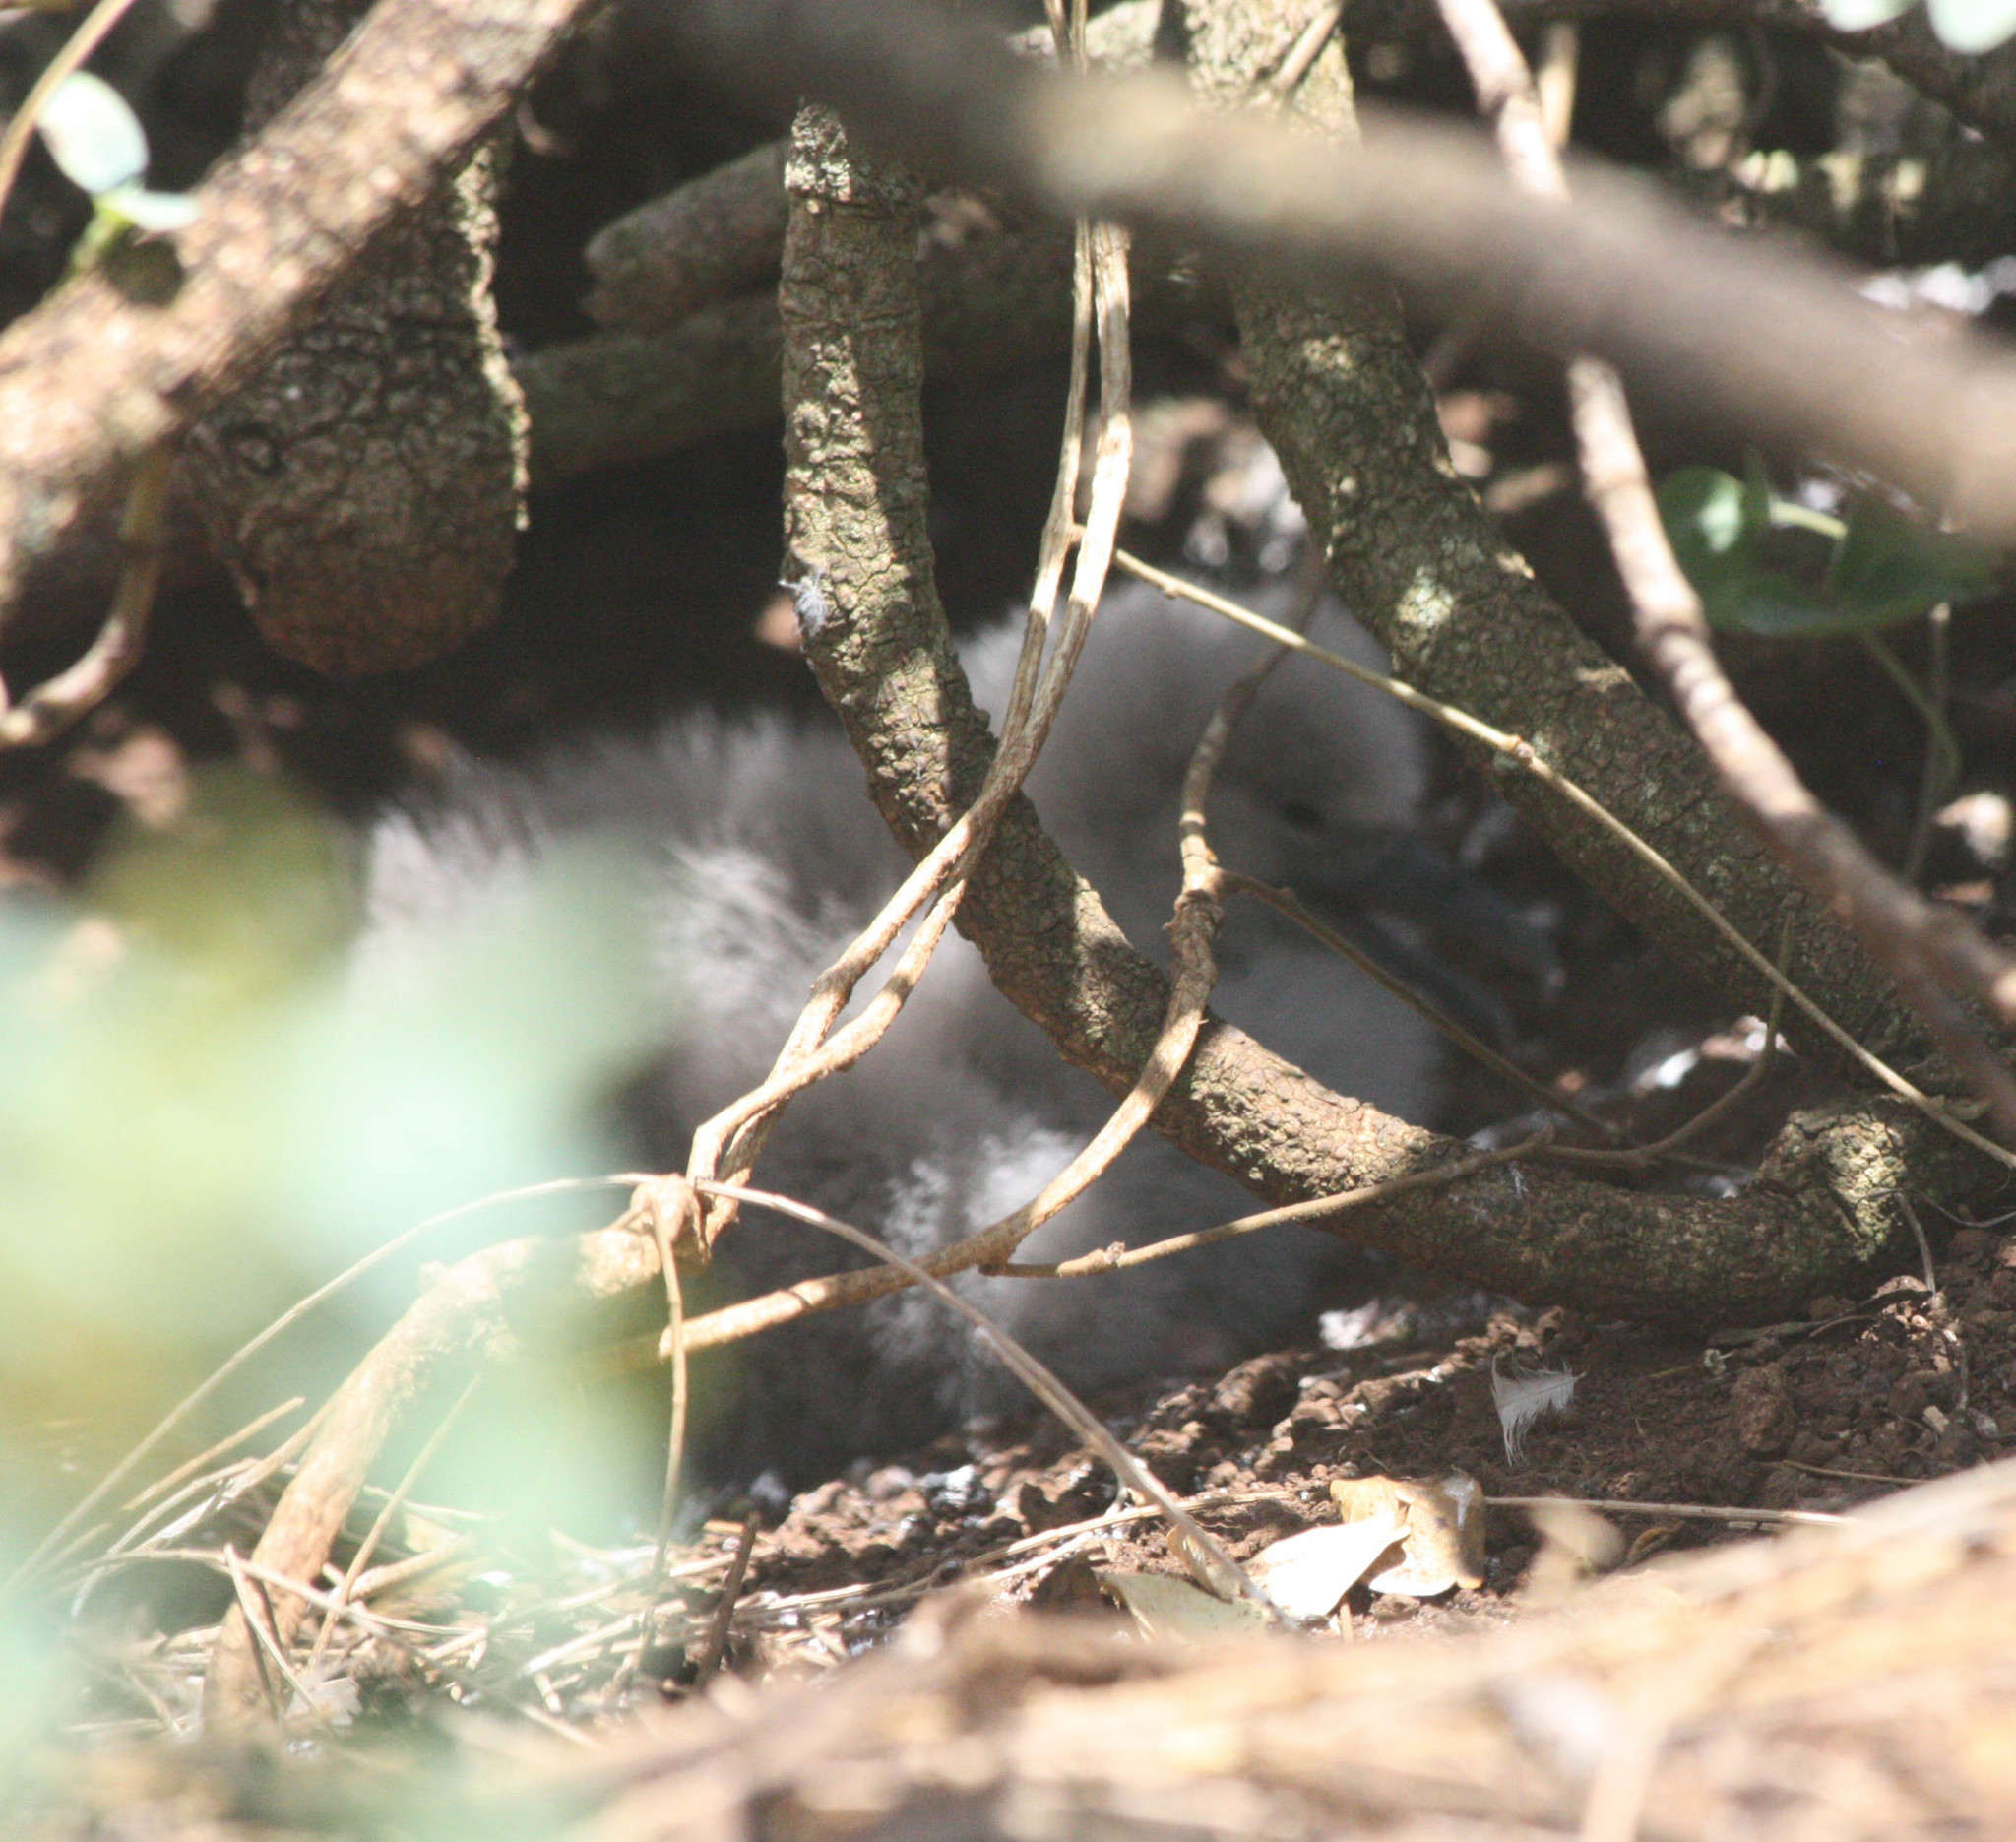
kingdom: Animalia
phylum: Chordata
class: Aves
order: Procellariiformes
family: Procellariidae
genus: Puffinus
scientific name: Puffinus pacificus
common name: Wedge-tailed shearwater
